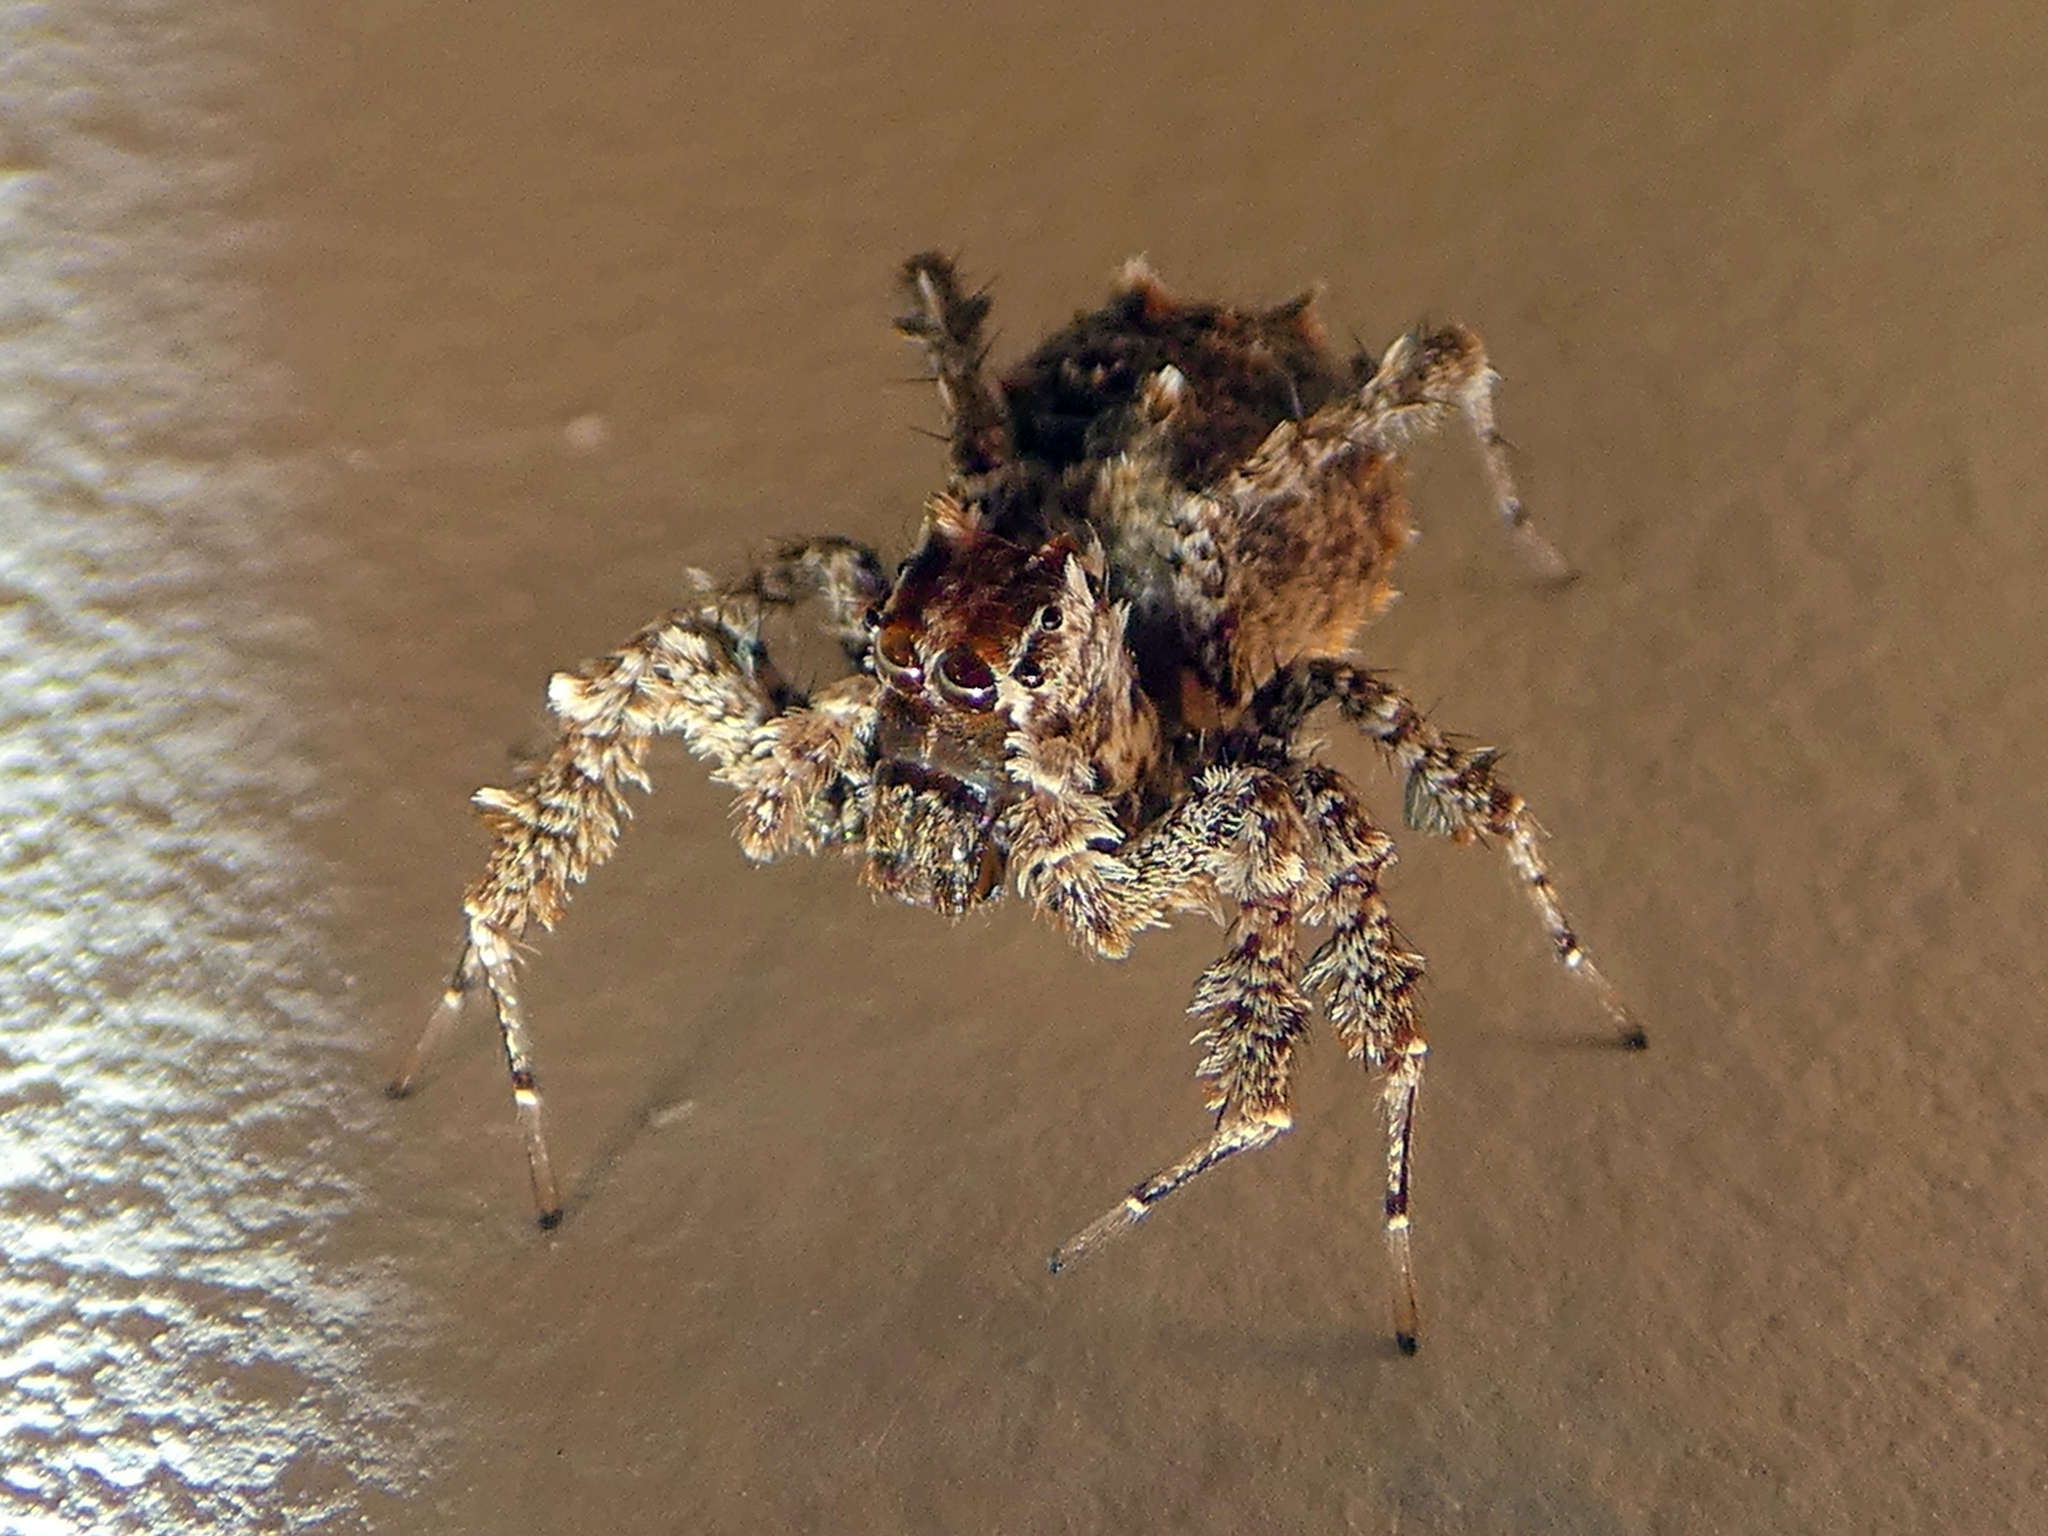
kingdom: Animalia
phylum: Arthropoda
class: Arachnida
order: Araneae
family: Salticidae
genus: Portia
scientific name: Portia fimbriata
